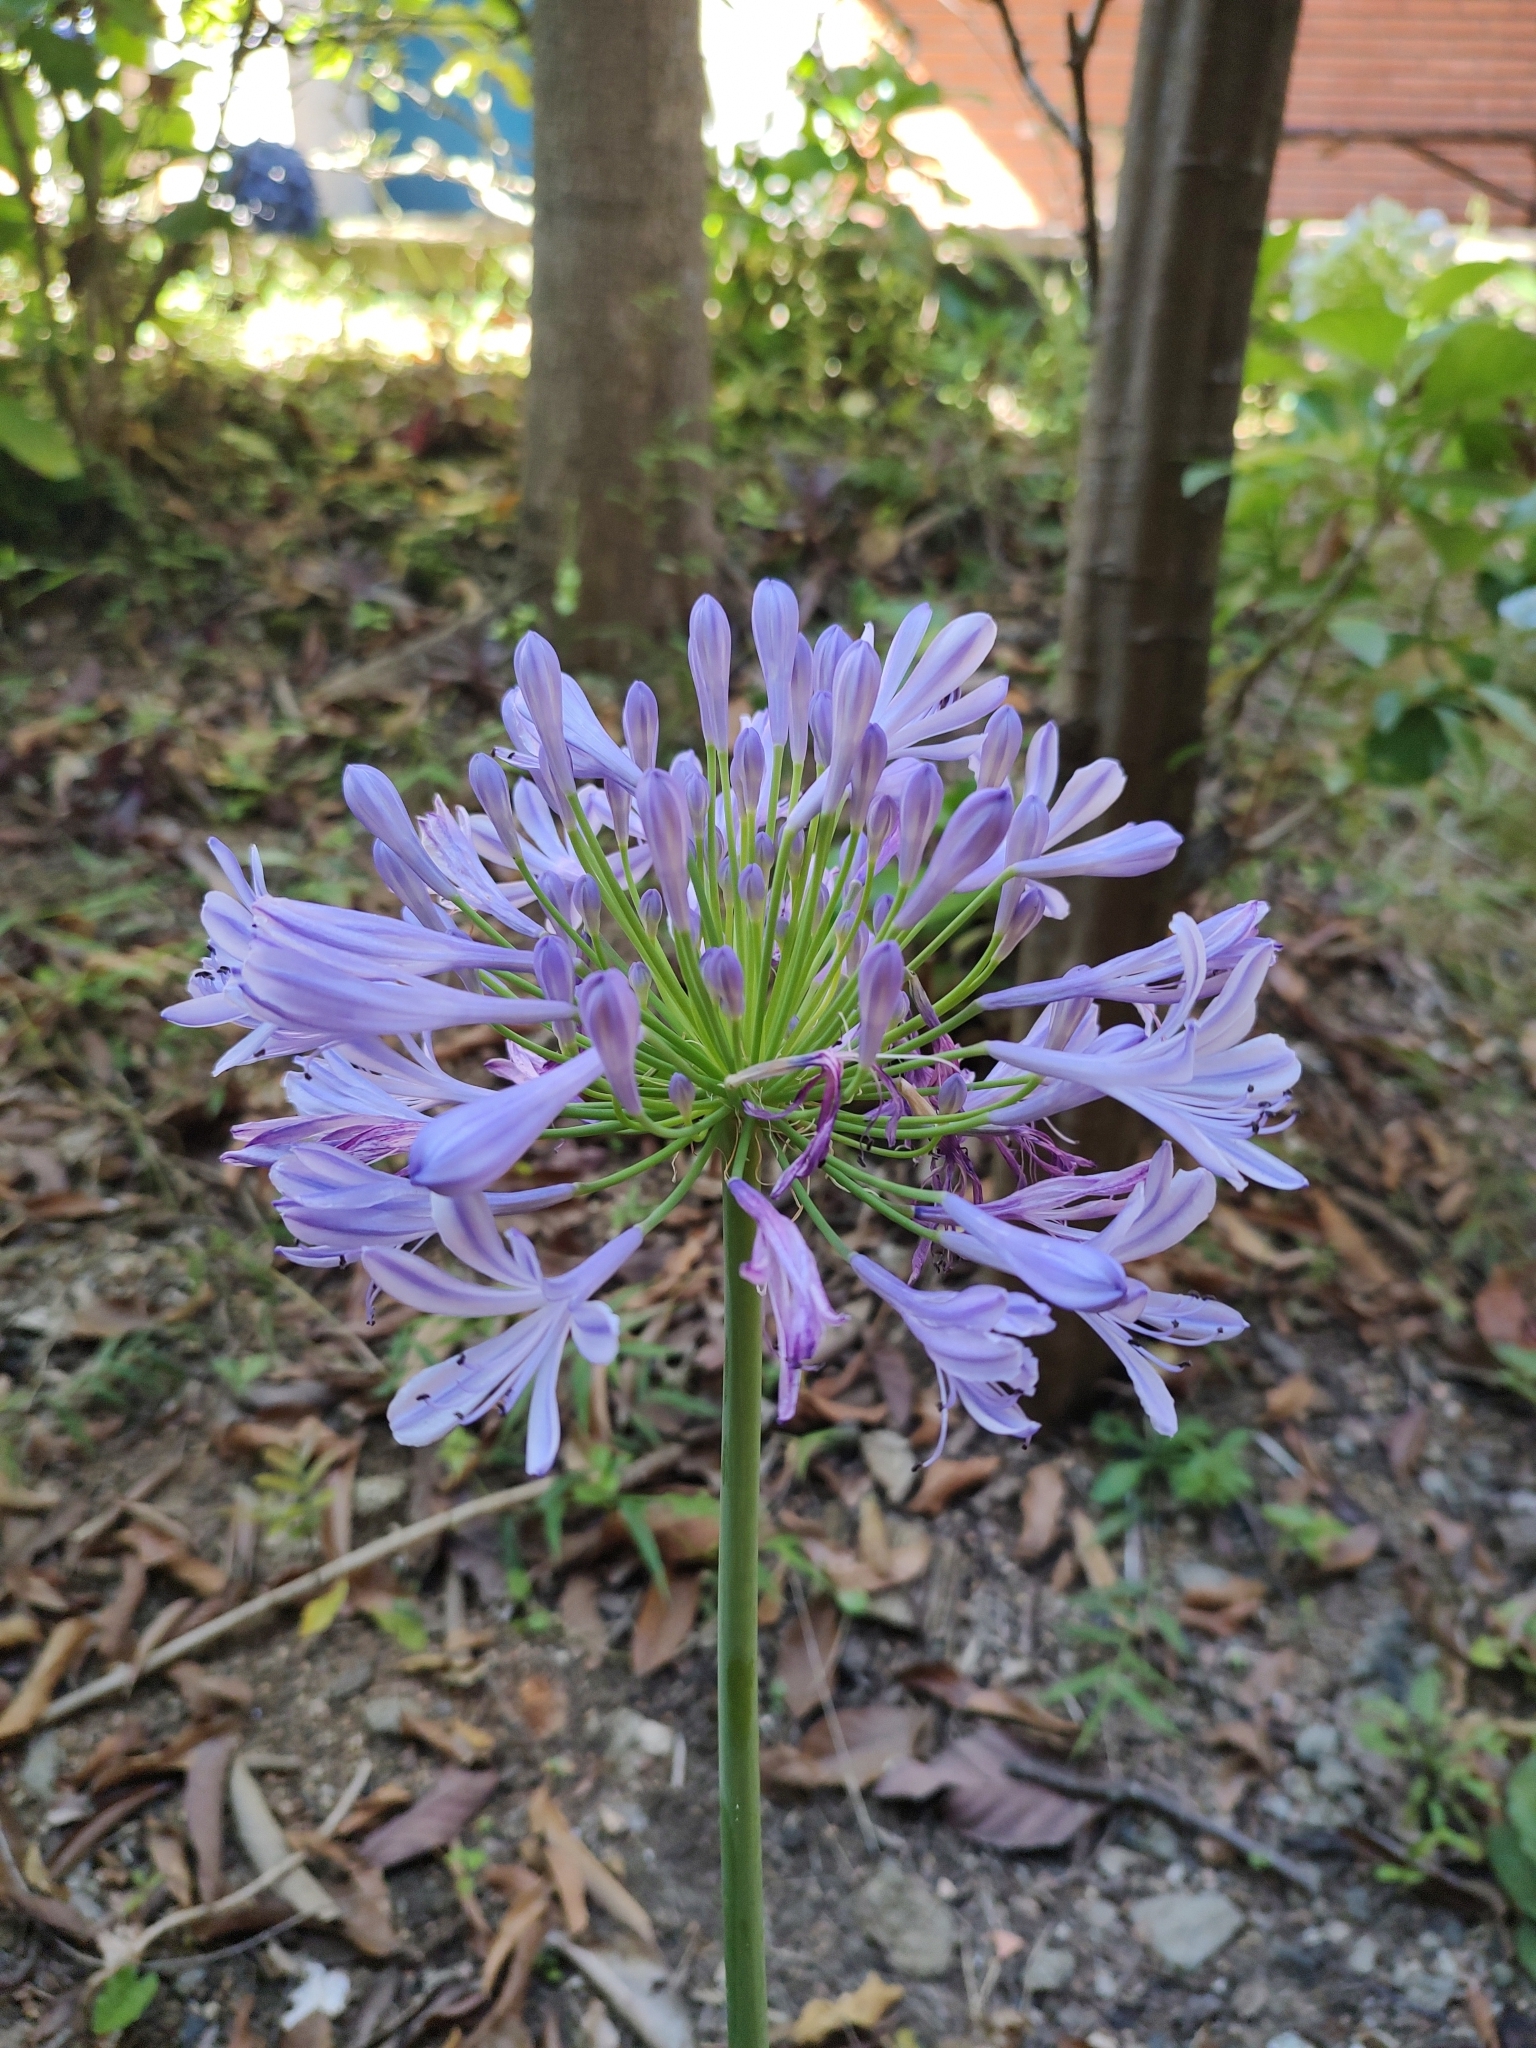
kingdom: Plantae
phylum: Tracheophyta
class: Liliopsida
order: Asparagales
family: Amaryllidaceae
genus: Agapanthus
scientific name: Agapanthus praecox
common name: African-lily
